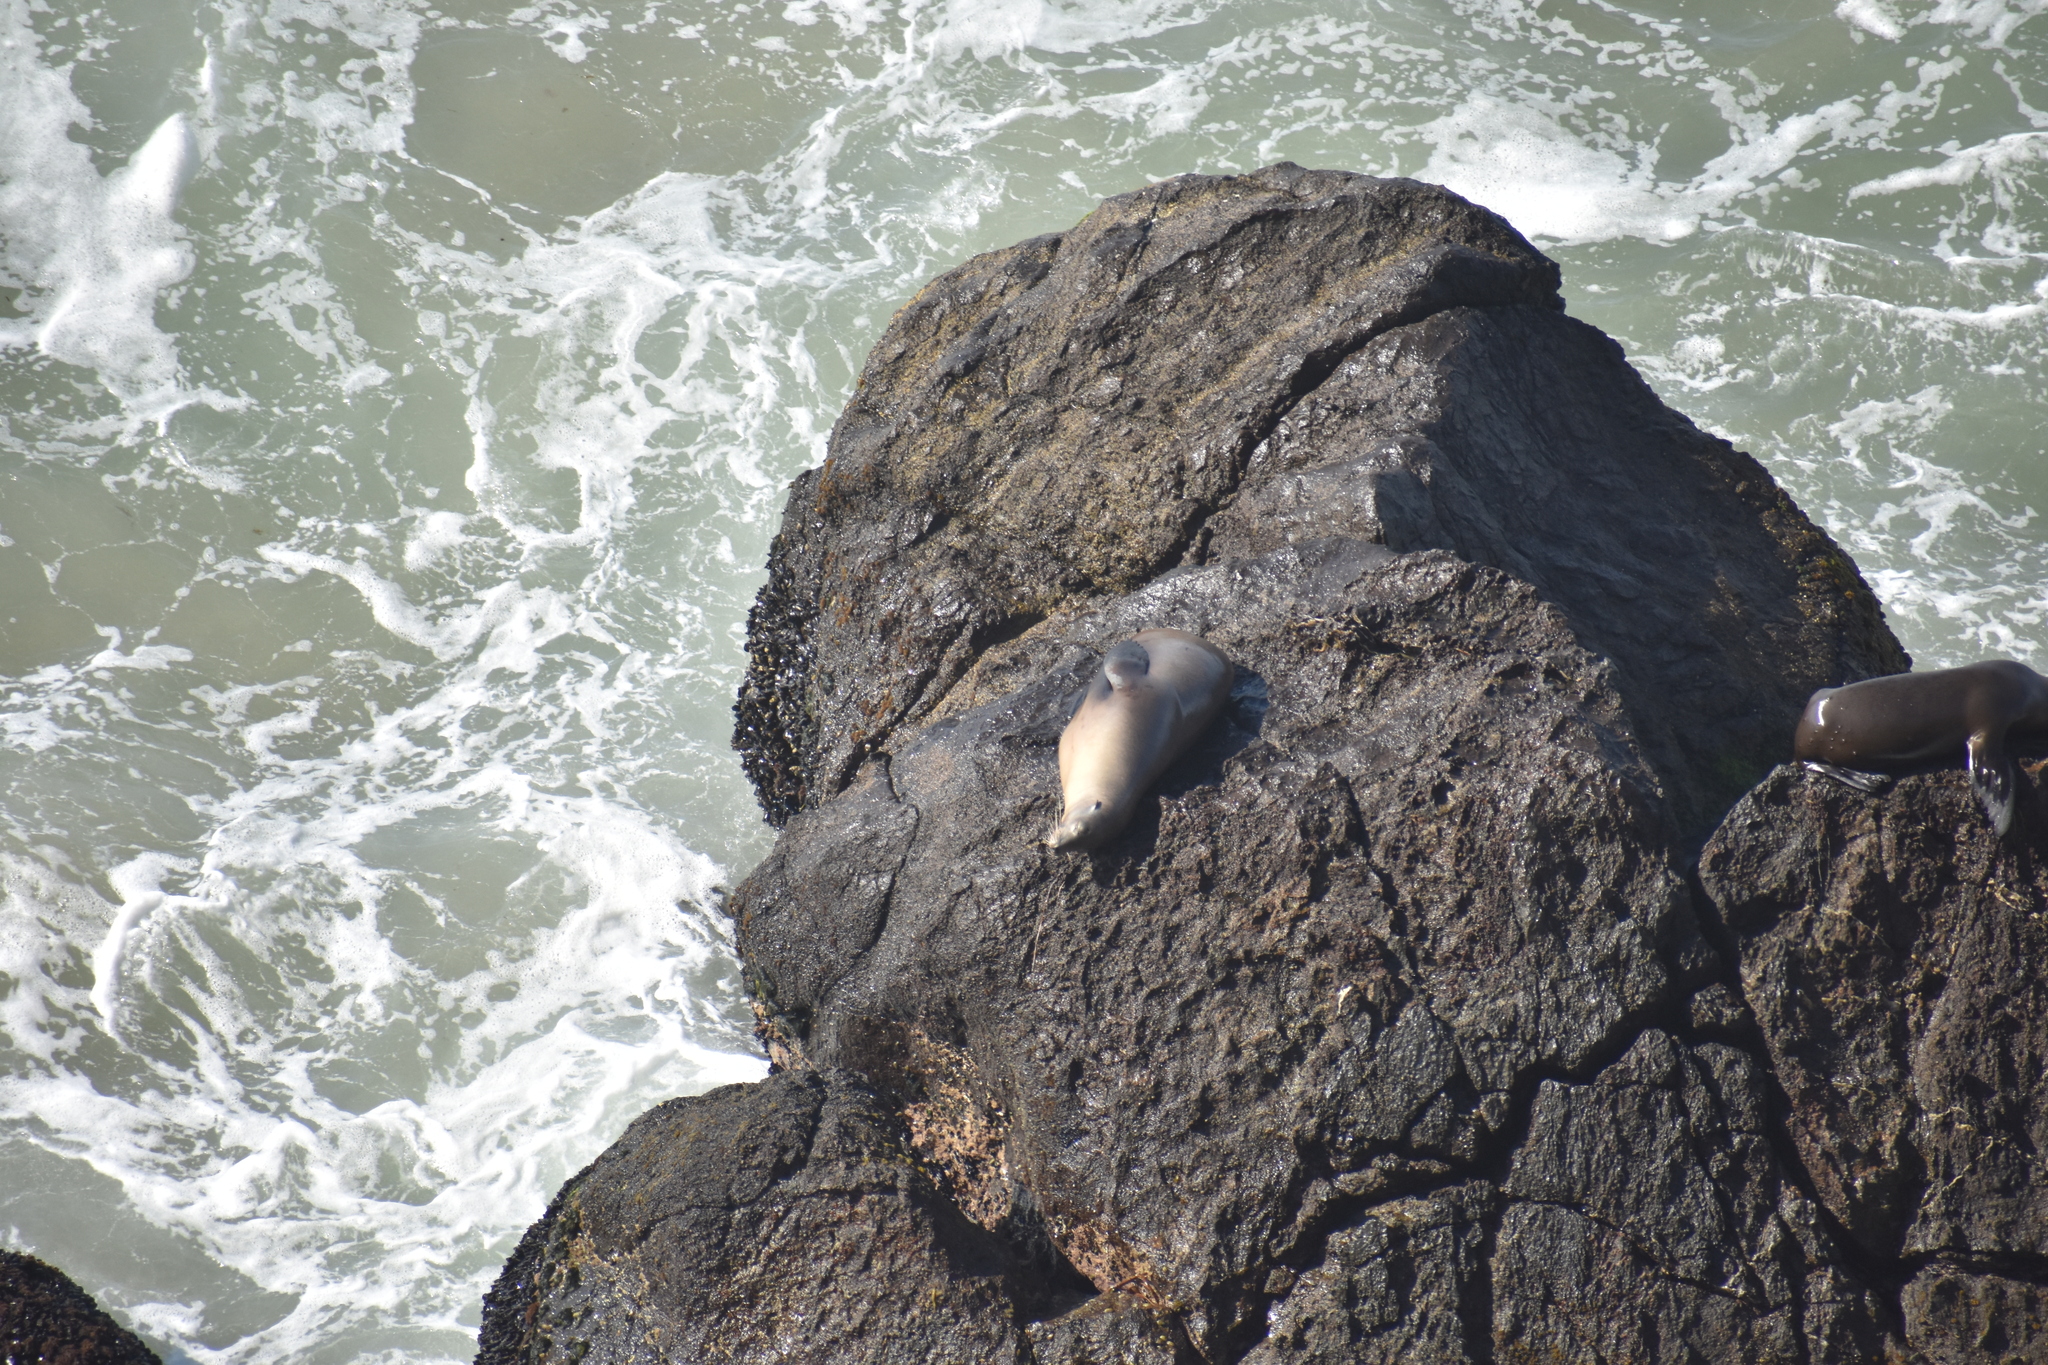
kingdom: Animalia
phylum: Chordata
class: Mammalia
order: Carnivora
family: Otariidae
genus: Zalophus
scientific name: Zalophus californianus
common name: California sea lion
